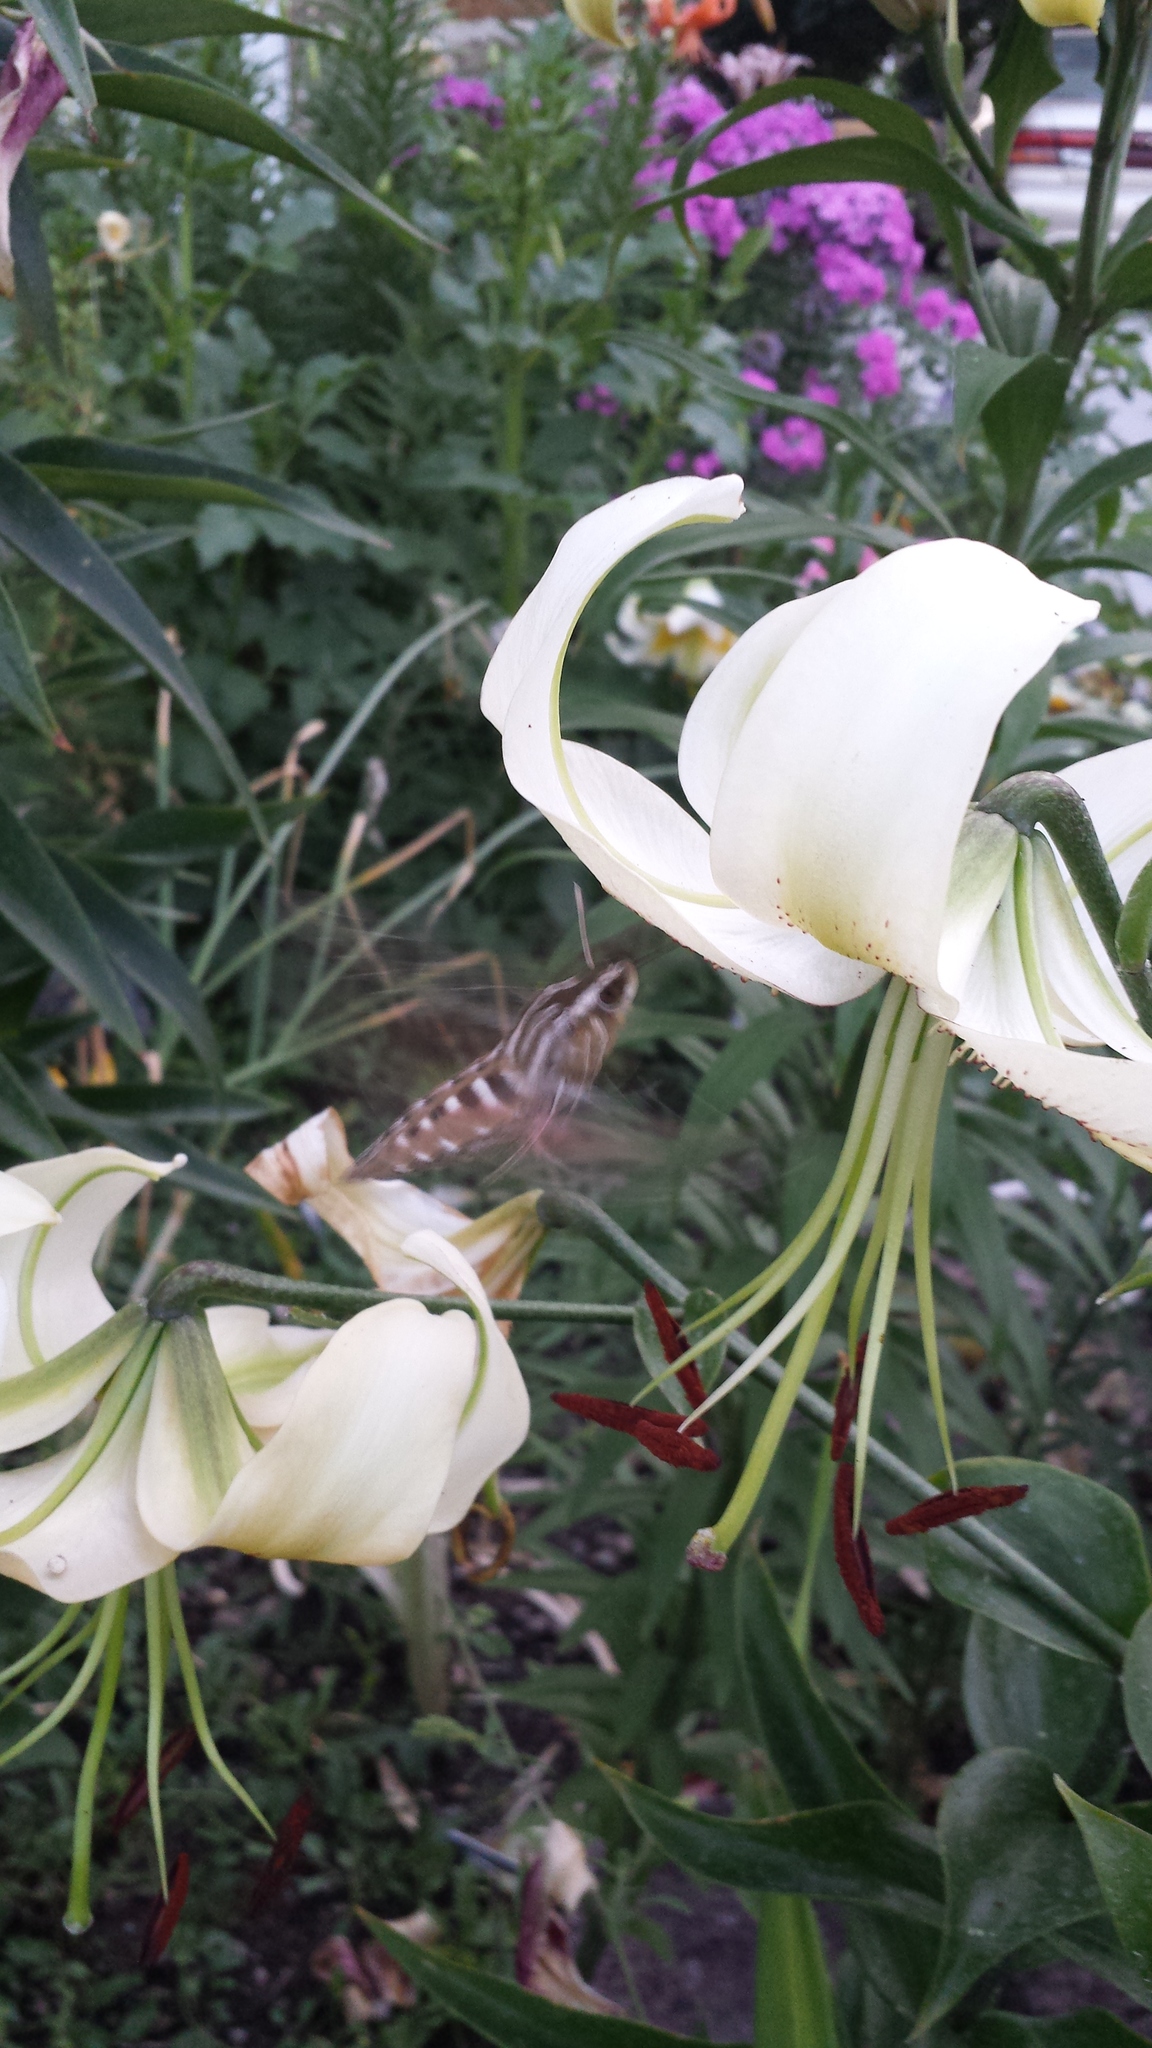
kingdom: Animalia
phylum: Arthropoda
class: Insecta
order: Lepidoptera
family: Sphingidae
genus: Hyles
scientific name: Hyles lineata
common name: White-lined sphinx
